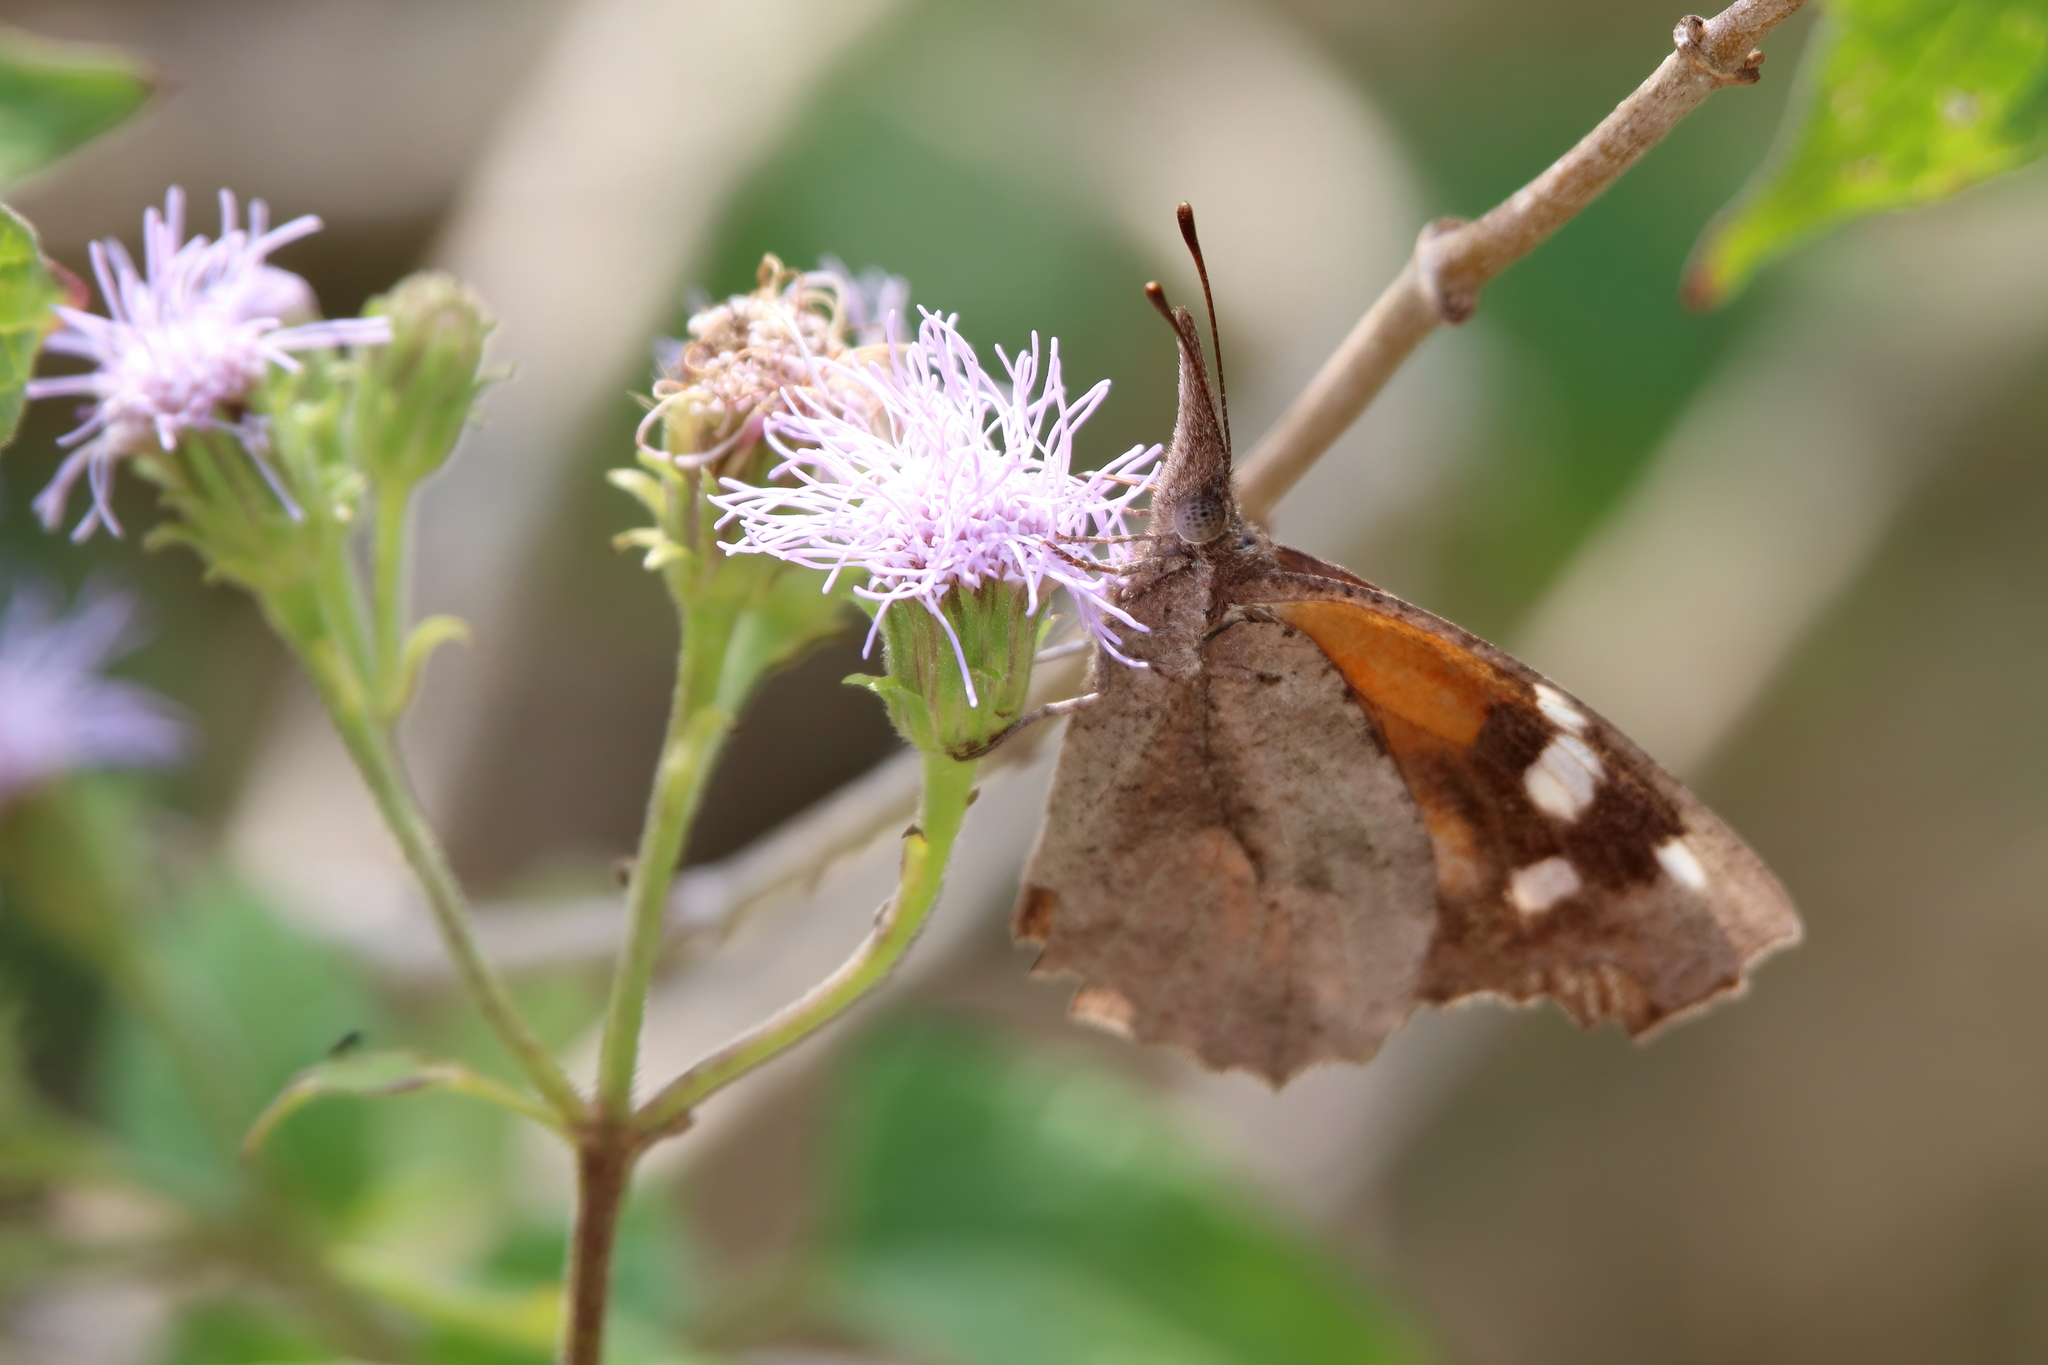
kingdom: Animalia
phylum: Arthropoda
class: Insecta
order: Lepidoptera
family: Nymphalidae
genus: Libytheana
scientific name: Libytheana carinenta
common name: American snout
